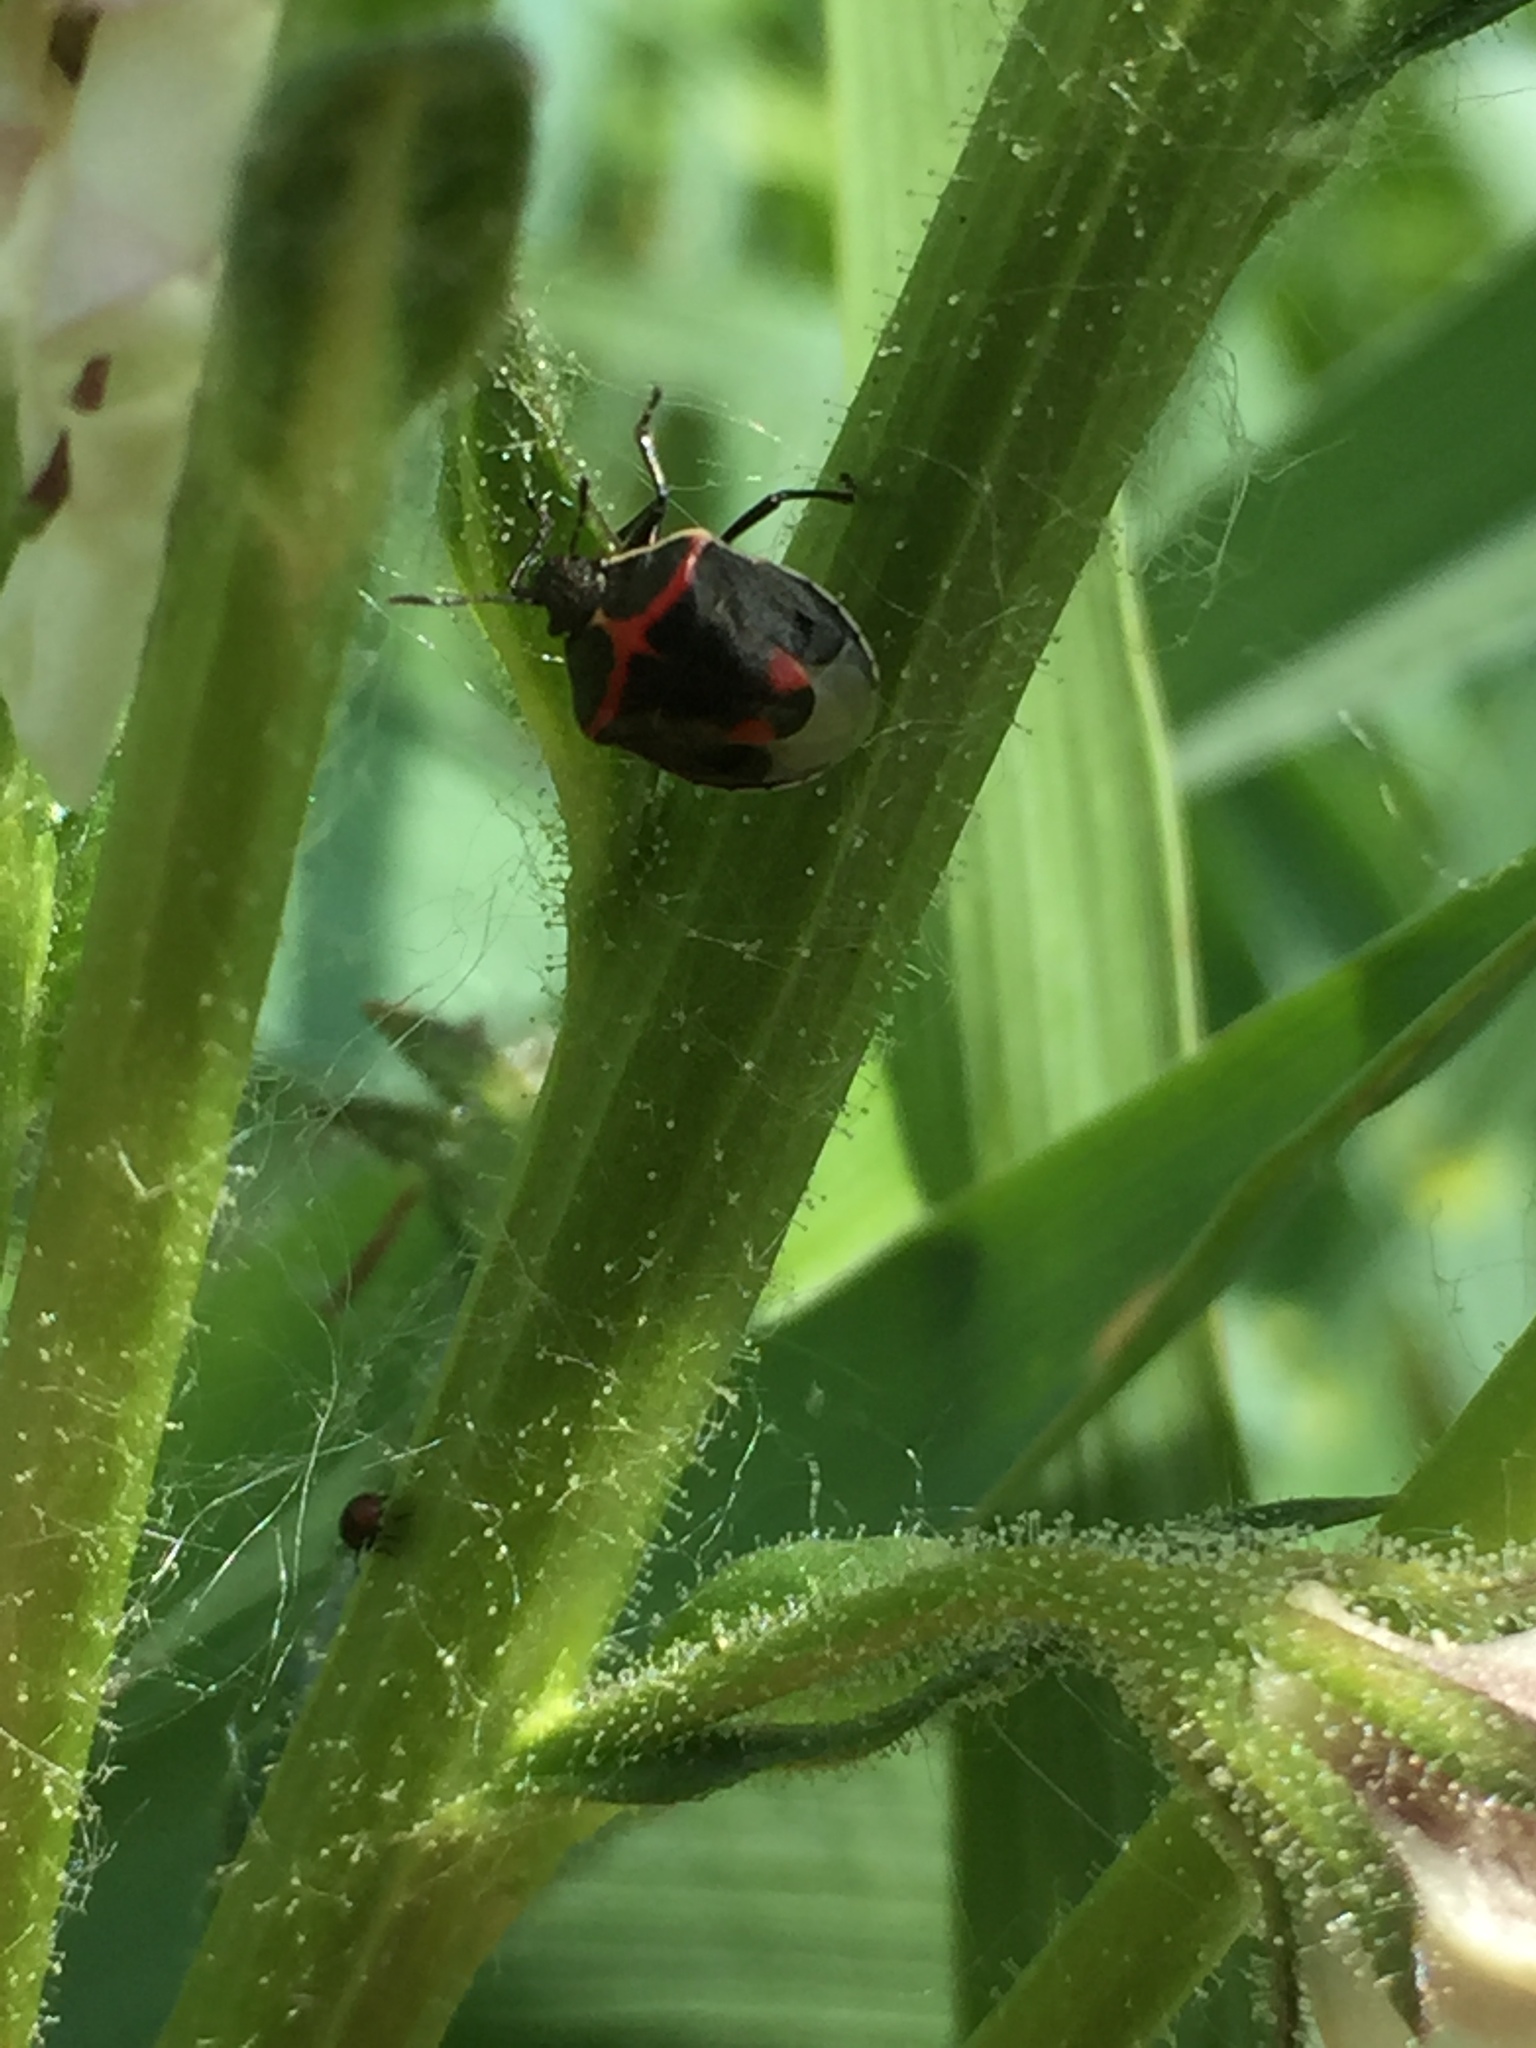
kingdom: Animalia
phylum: Arthropoda
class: Insecta
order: Hemiptera
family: Pentatomidae
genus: Cosmopepla
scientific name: Cosmopepla lintneriana
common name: Twice-stabbed stink bug
